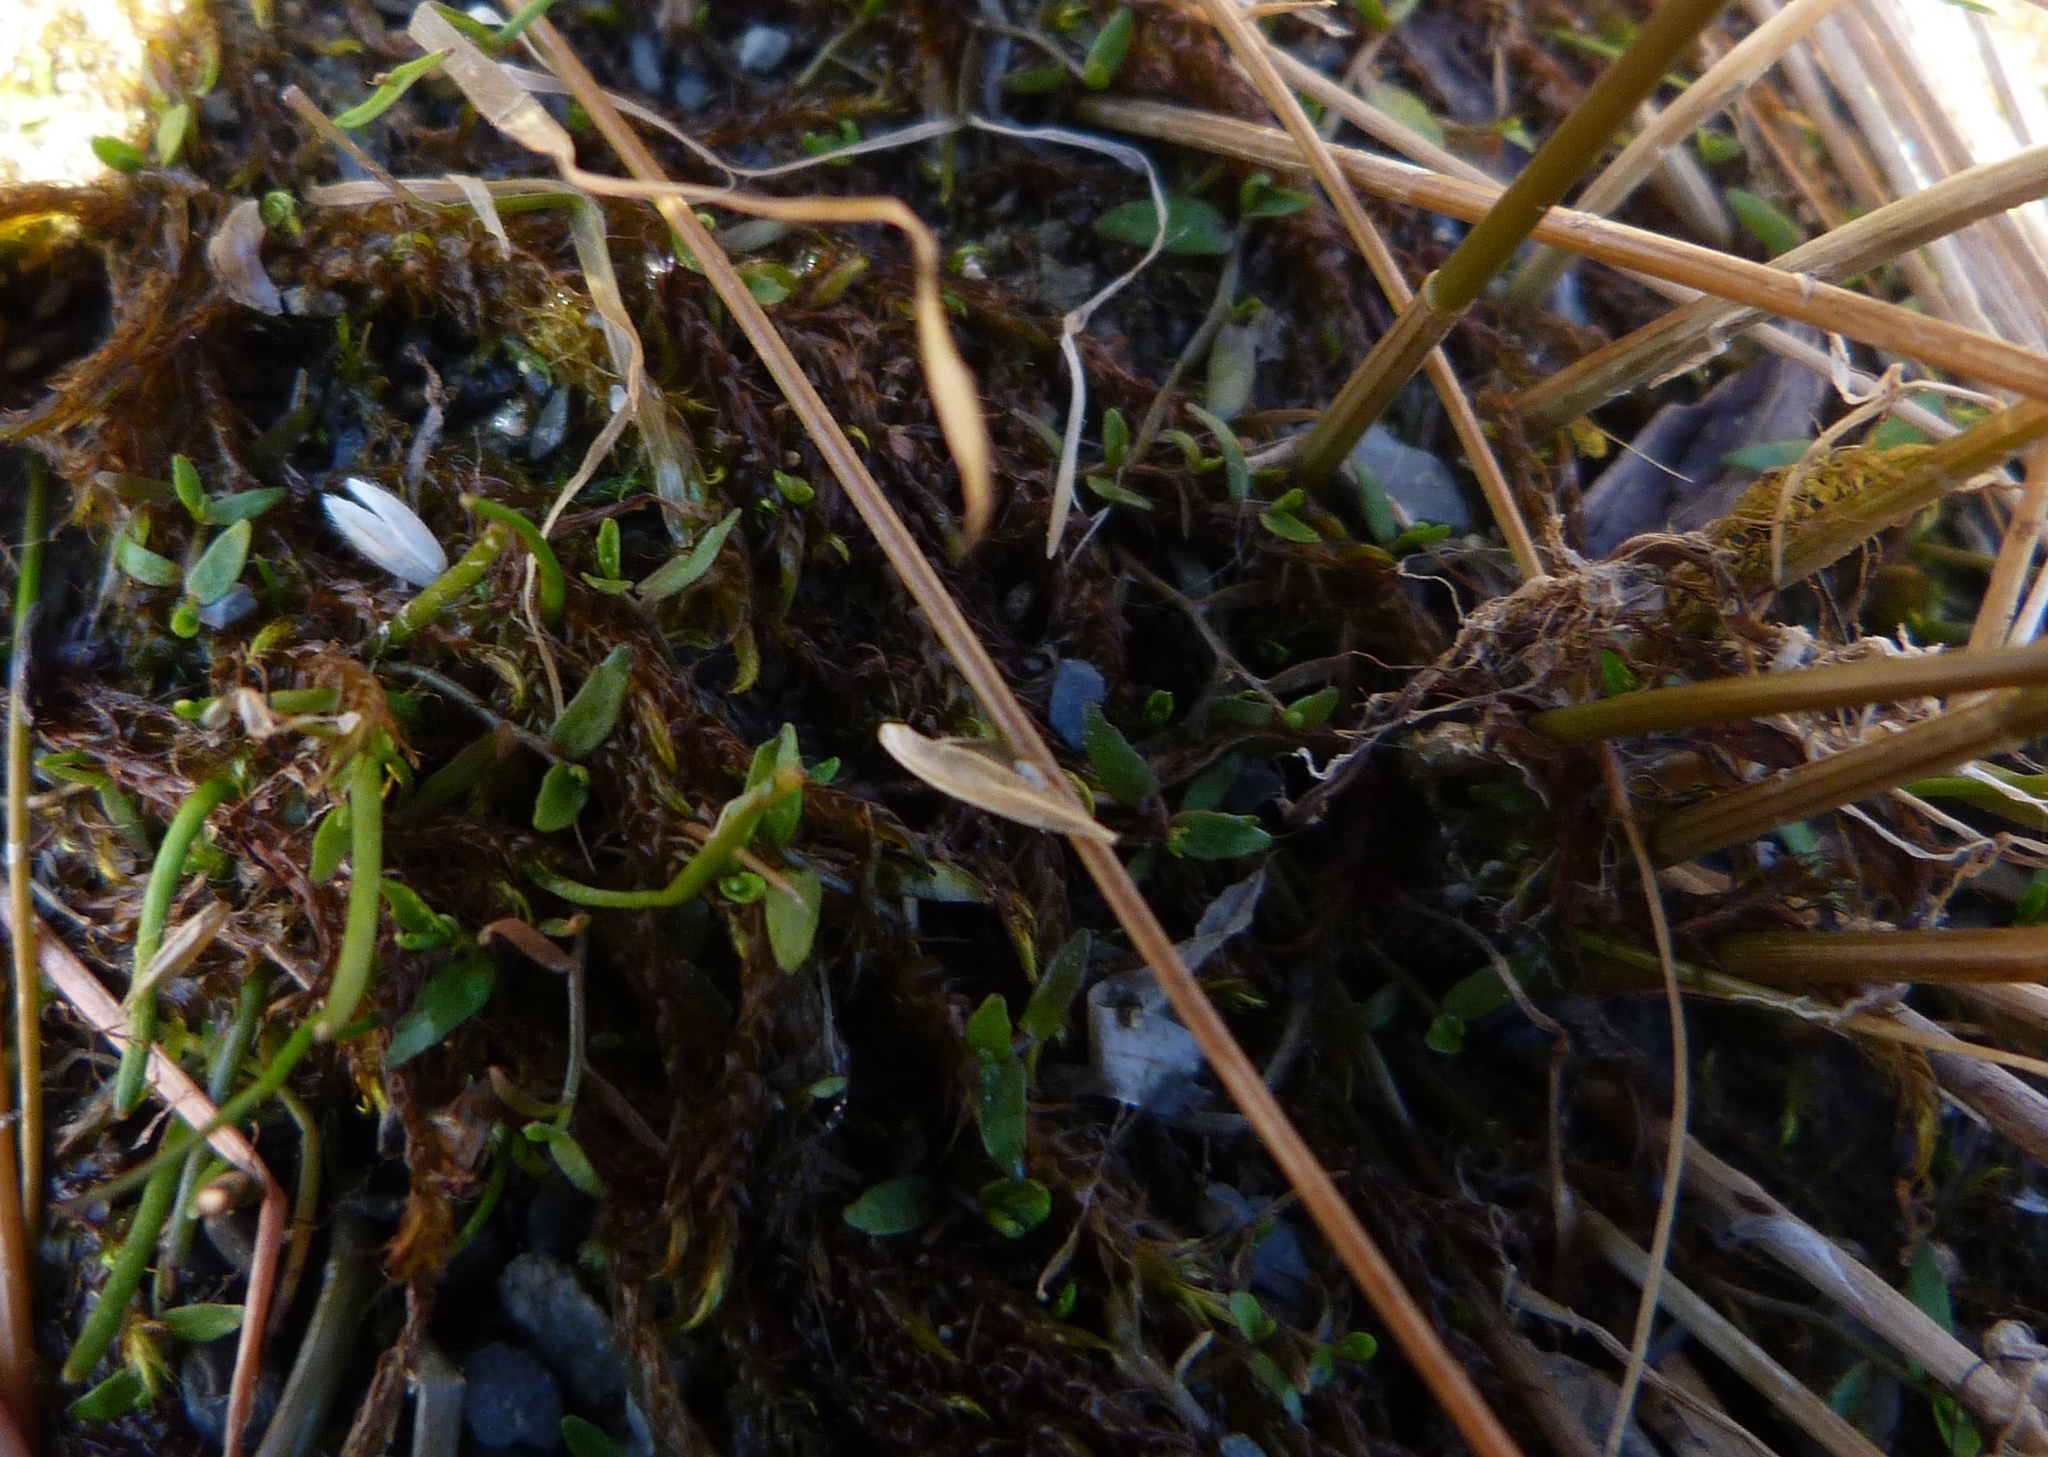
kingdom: Plantae
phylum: Tracheophyta
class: Magnoliopsida
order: Asterales
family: Campanulaceae
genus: Lobelia
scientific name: Lobelia perpusilla
